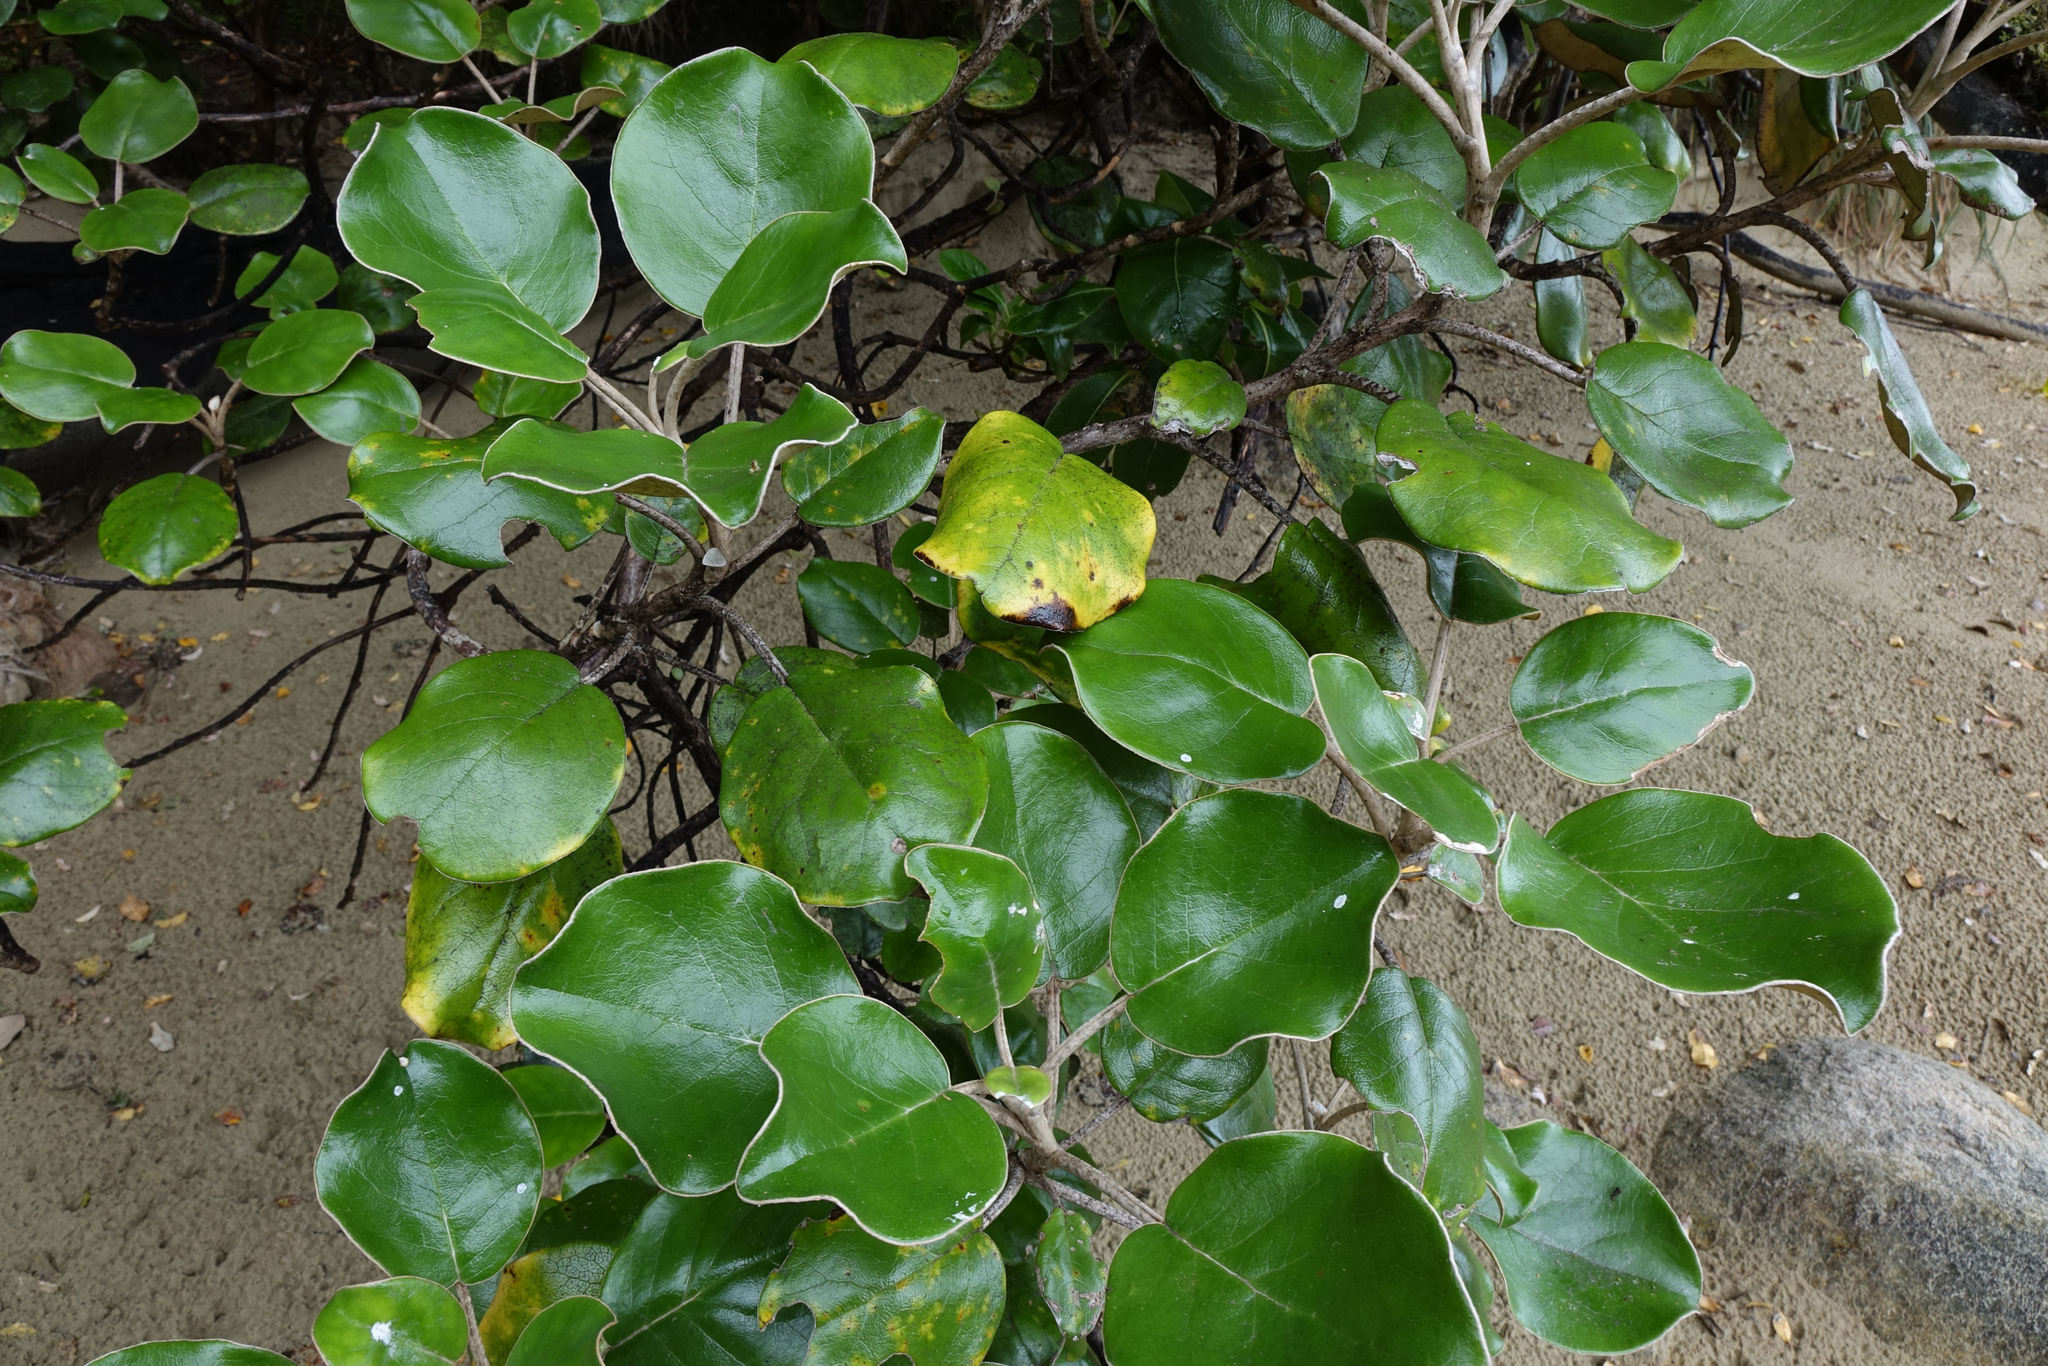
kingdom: Plantae
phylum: Tracheophyta
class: Magnoliopsida
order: Asterales
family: Asteraceae
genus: Brachyglottis
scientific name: Brachyglottis rotundifolia
